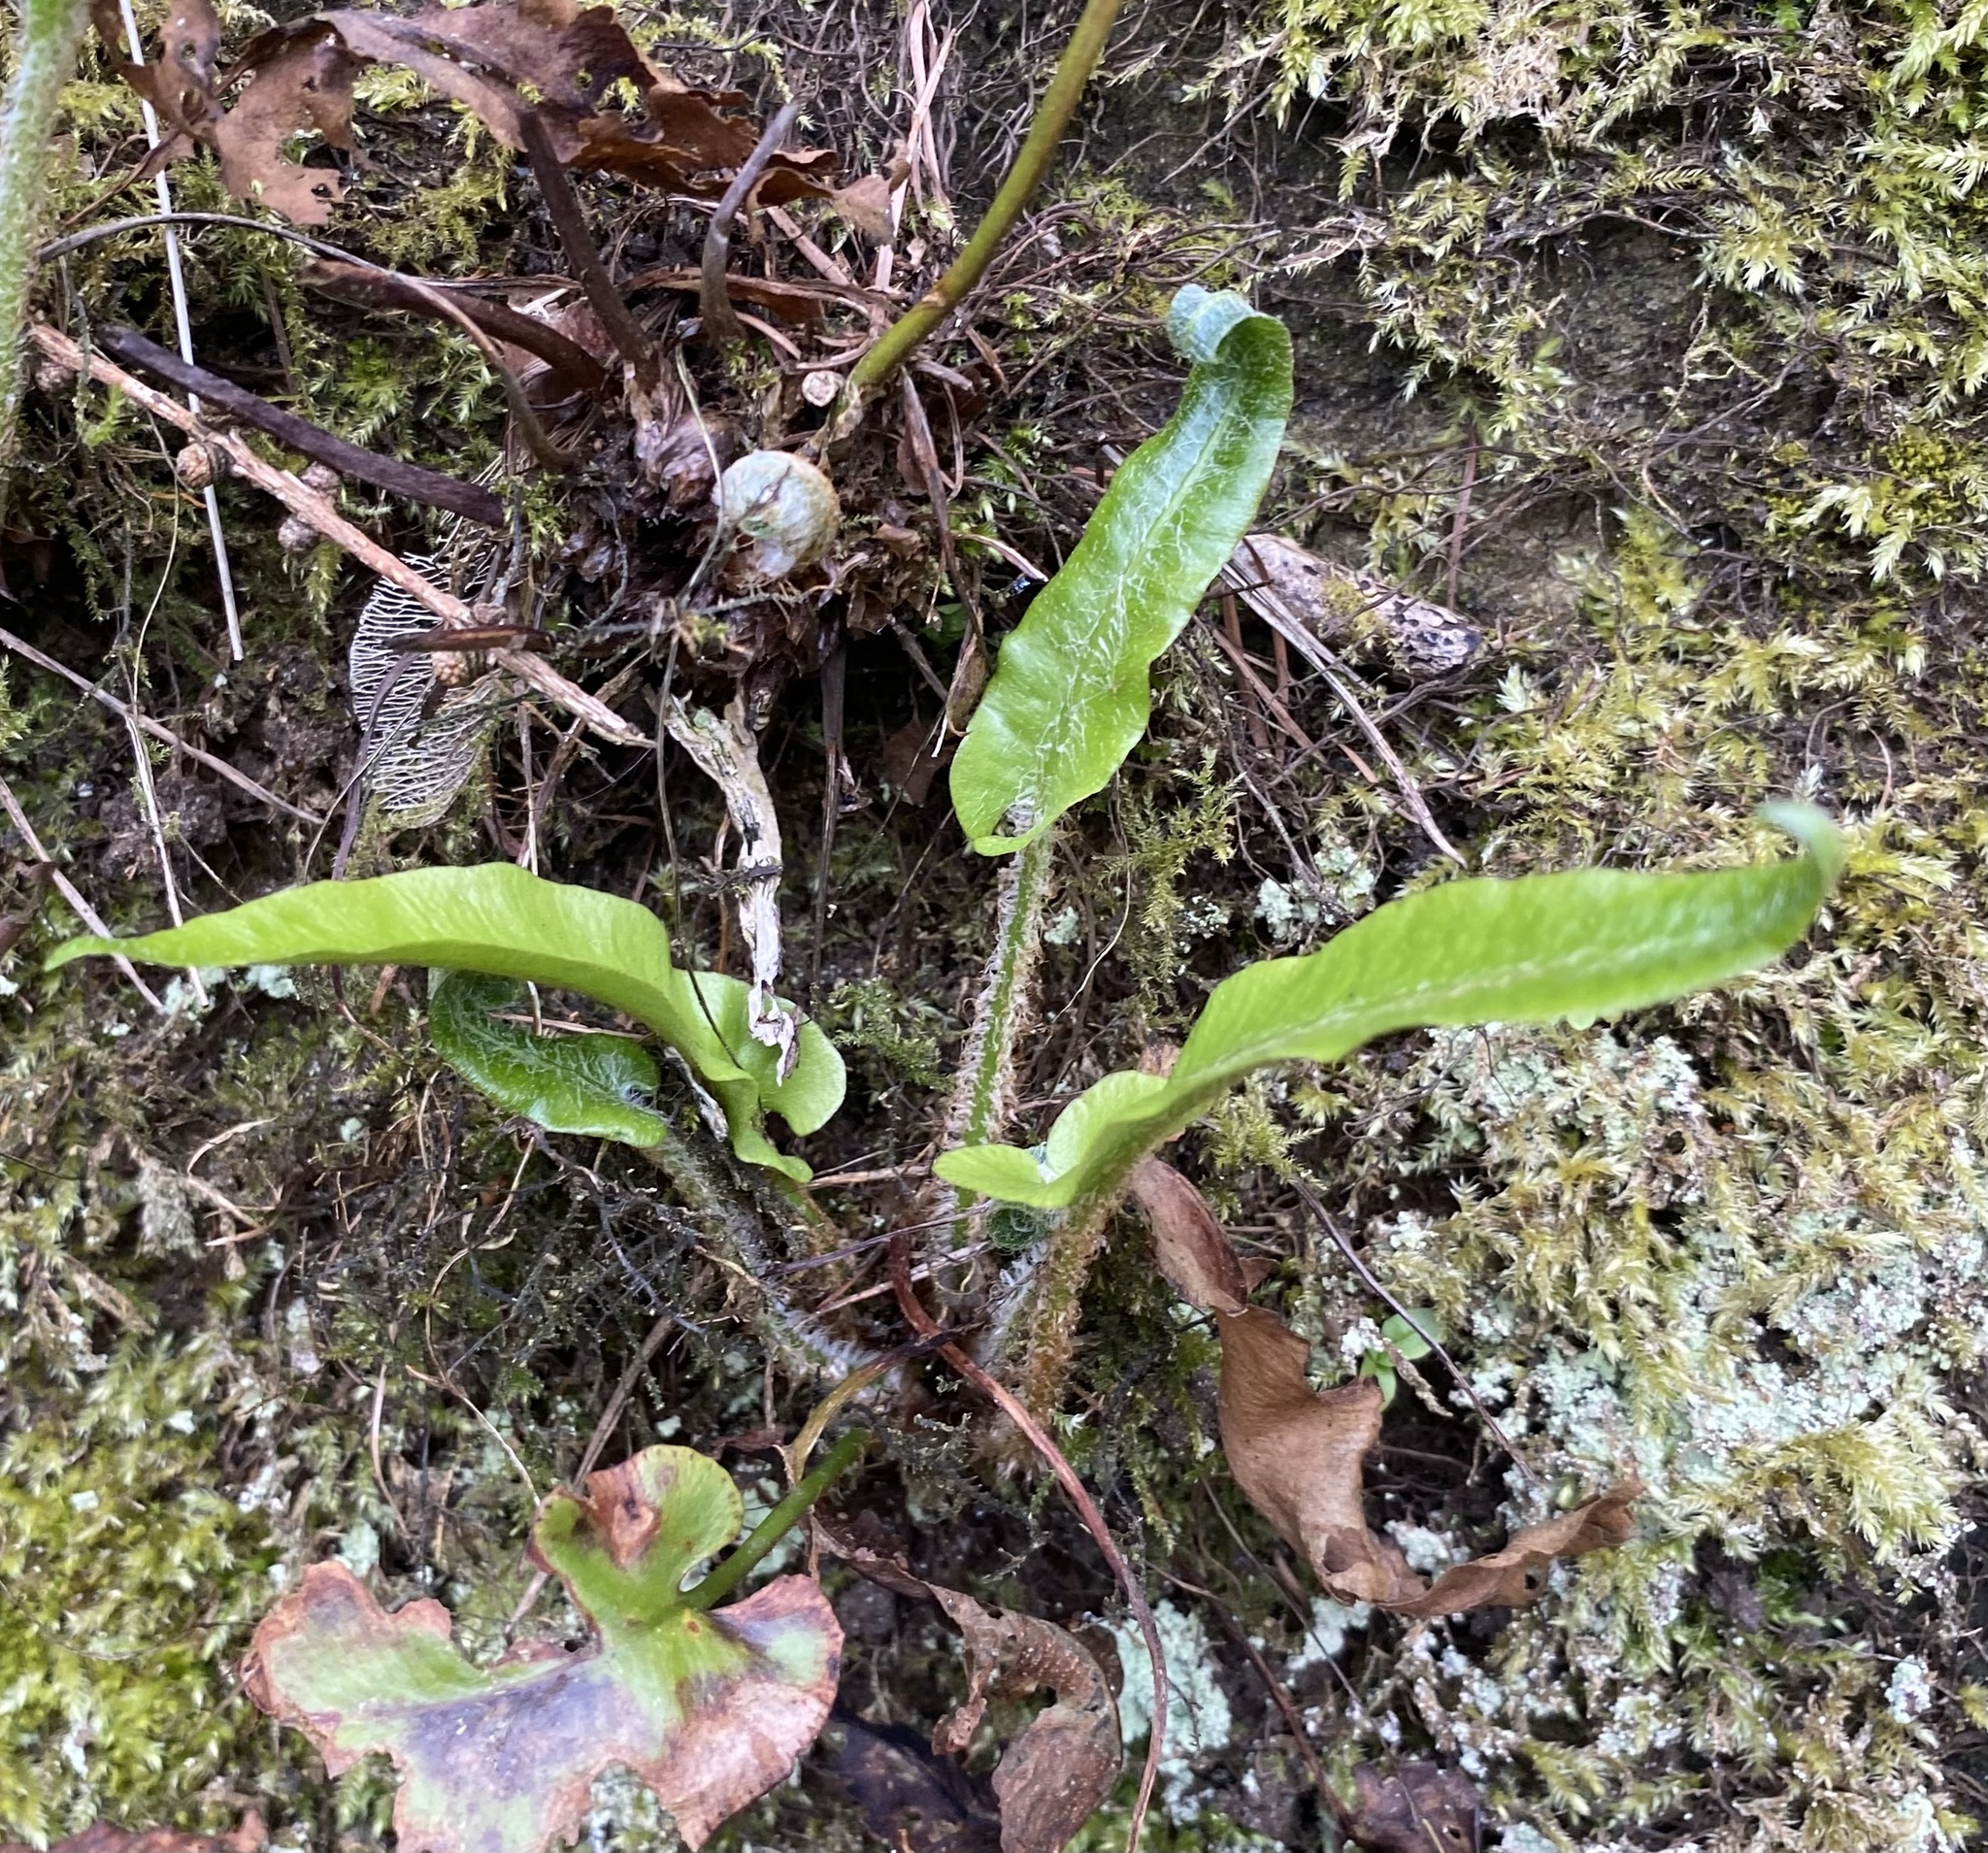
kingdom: Plantae
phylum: Tracheophyta
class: Polypodiopsida
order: Polypodiales
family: Aspleniaceae
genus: Asplenium
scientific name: Asplenium scolopendrium
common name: Hart's-tongue fern
